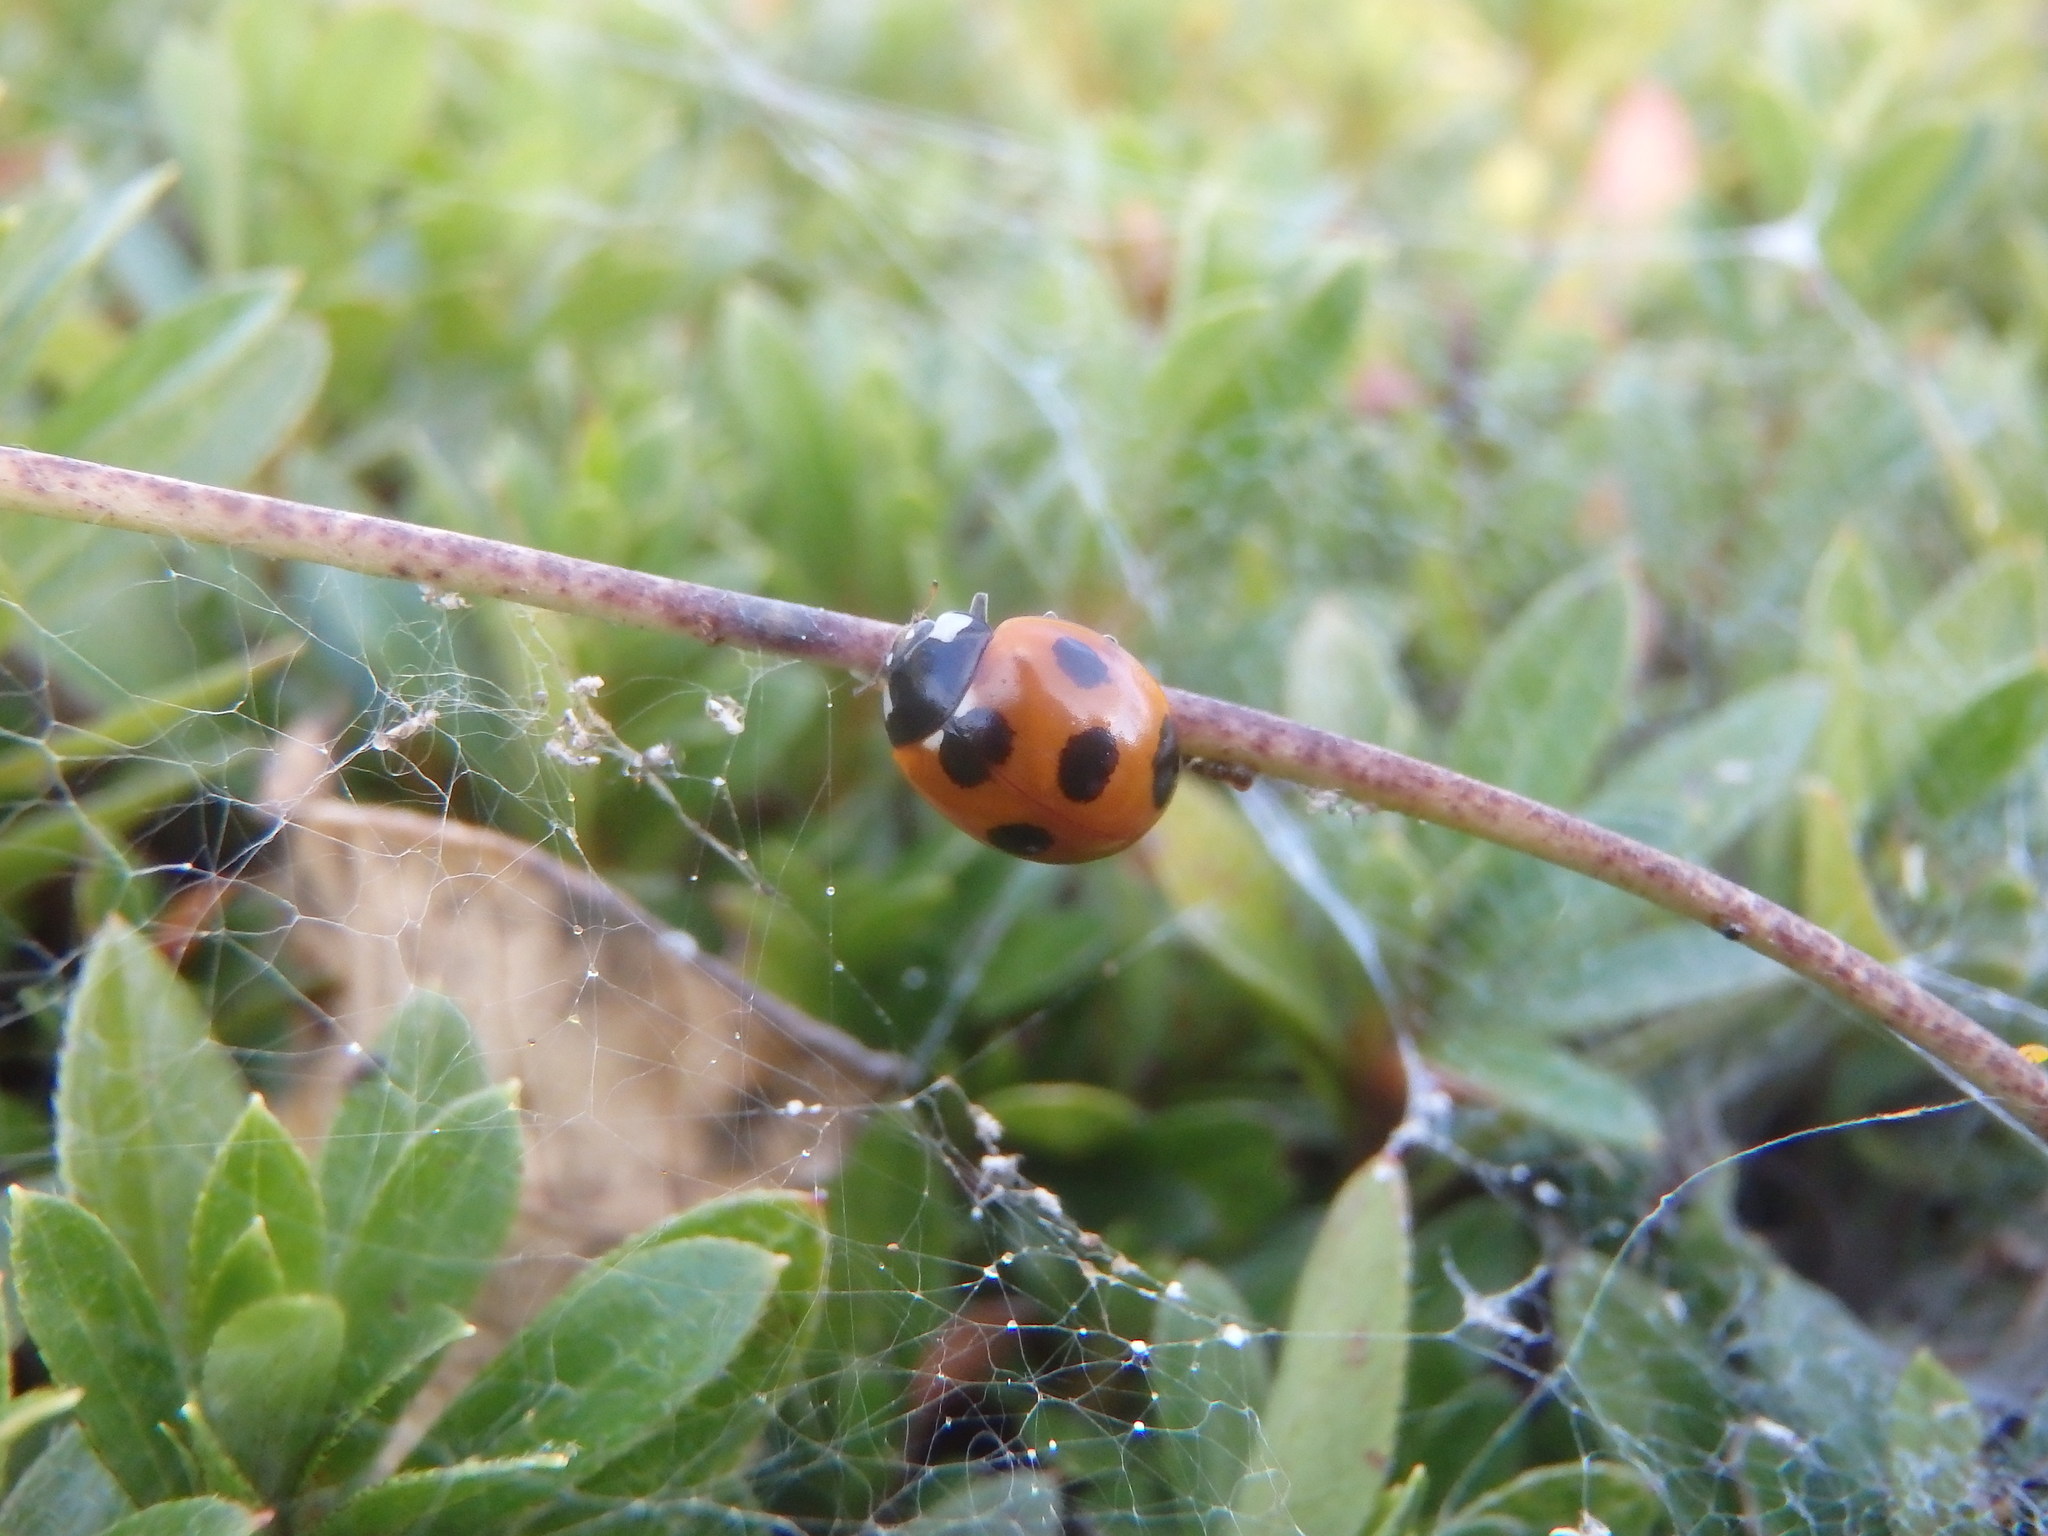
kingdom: Animalia
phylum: Arthropoda
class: Insecta
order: Coleoptera
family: Coccinellidae
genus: Coccinella
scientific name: Coccinella septempunctata
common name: Sevenspotted lady beetle
